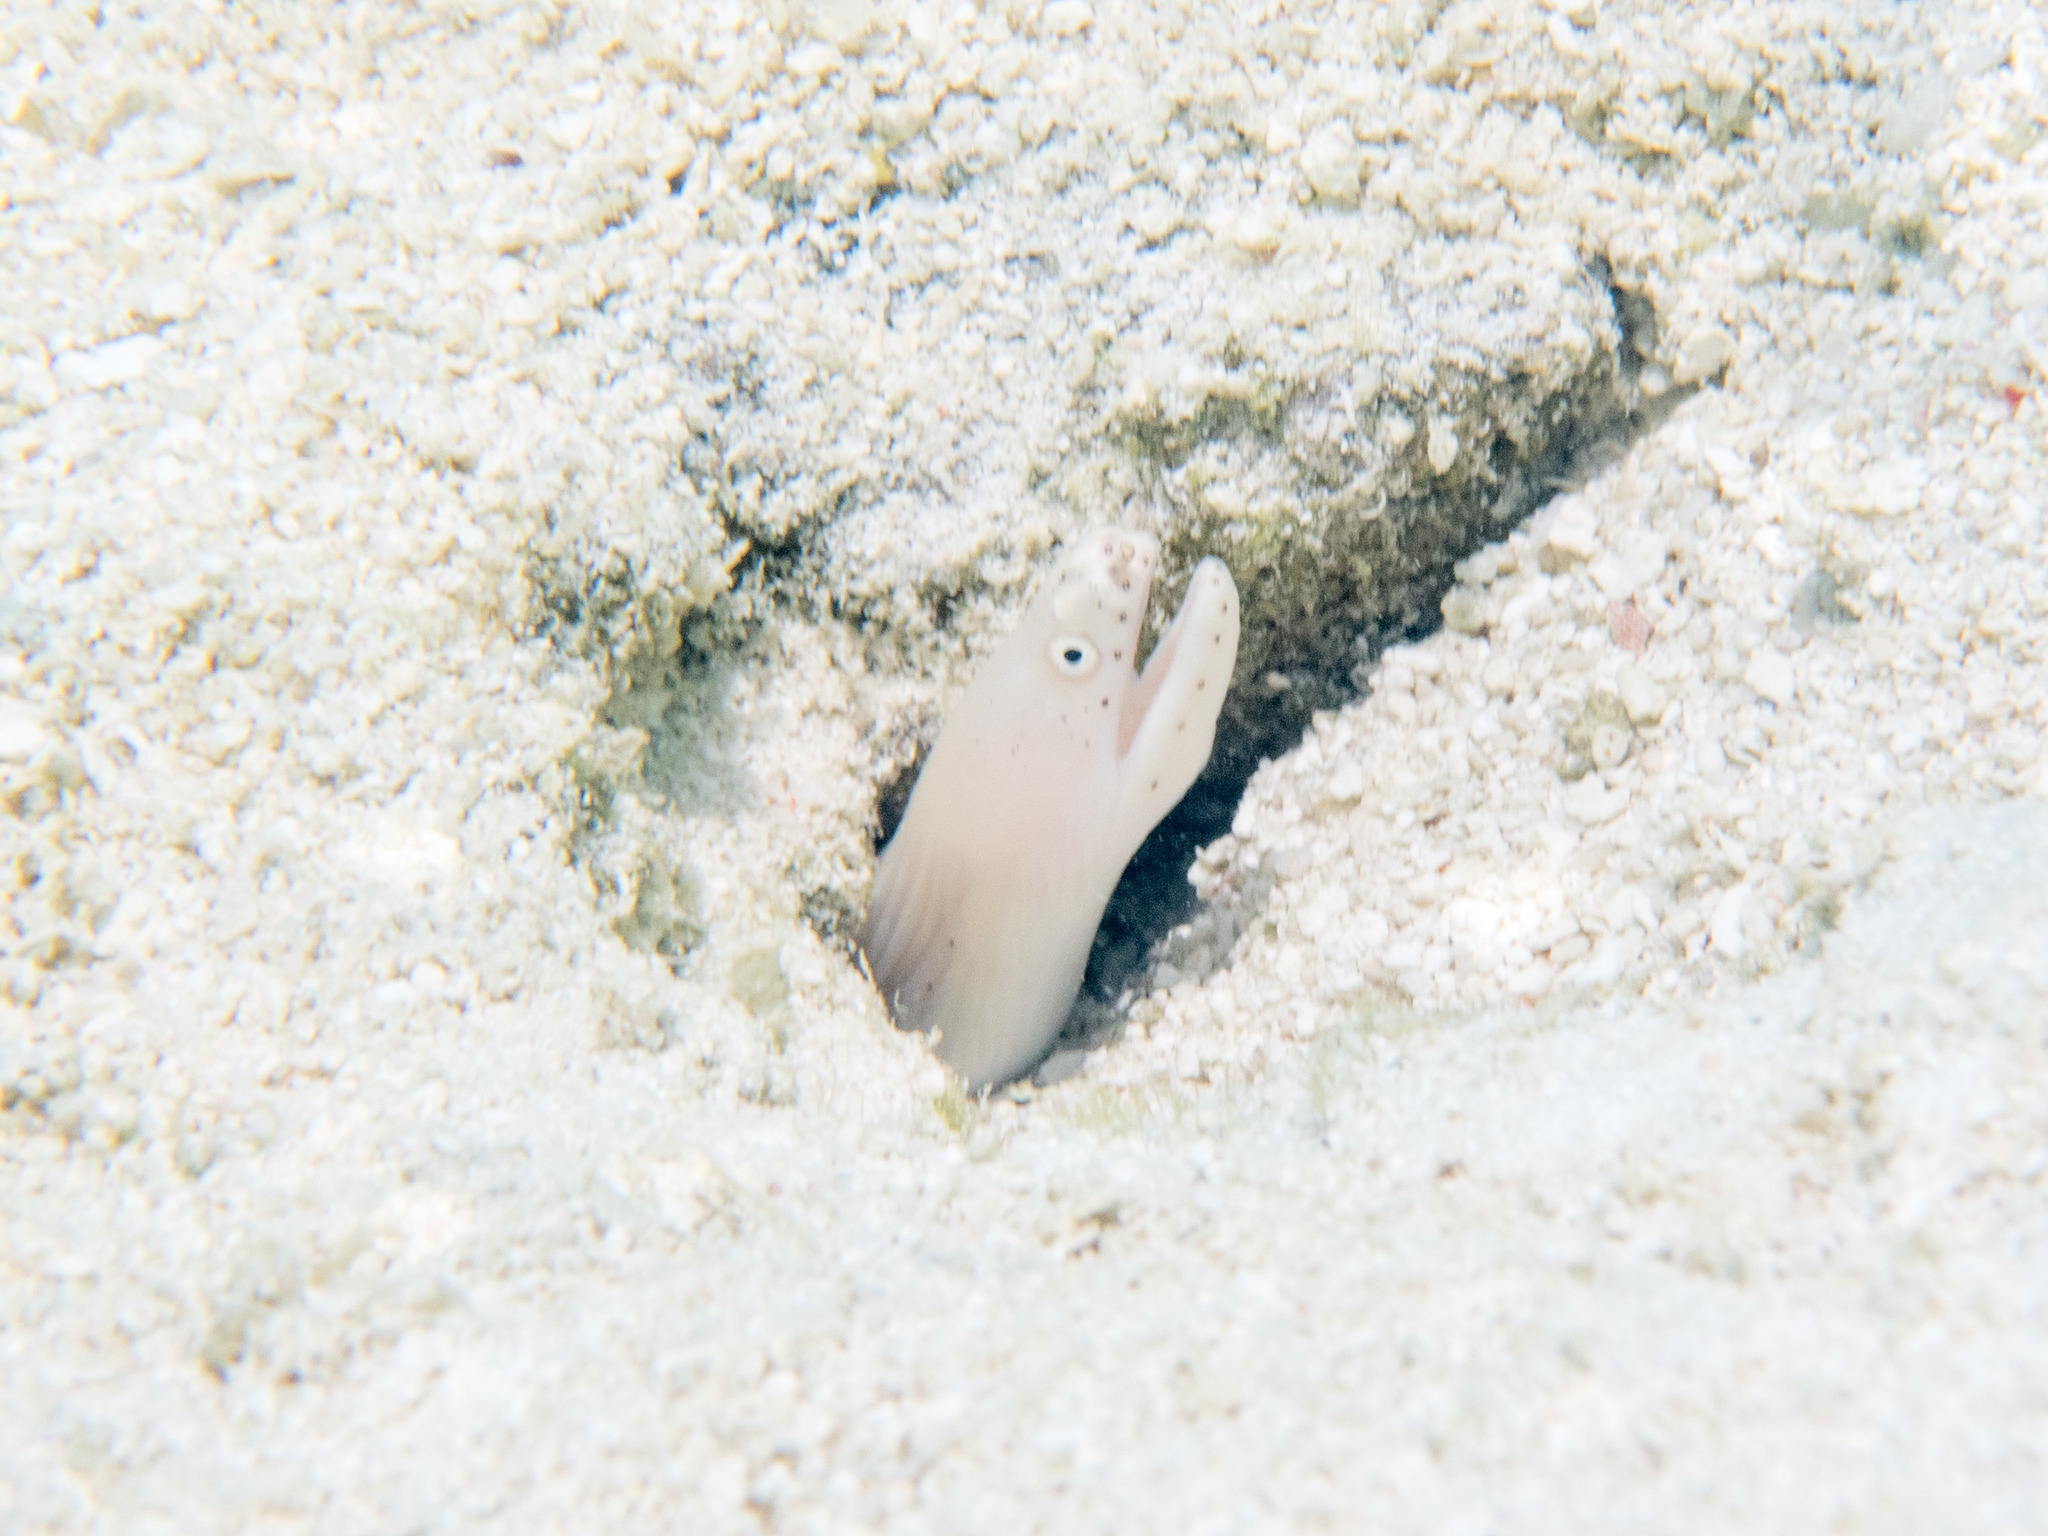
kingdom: Animalia
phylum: Chordata
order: Anguilliformes
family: Muraenidae
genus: Pseudechidna
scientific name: Pseudechidna brummeri
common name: White ribbon eel
